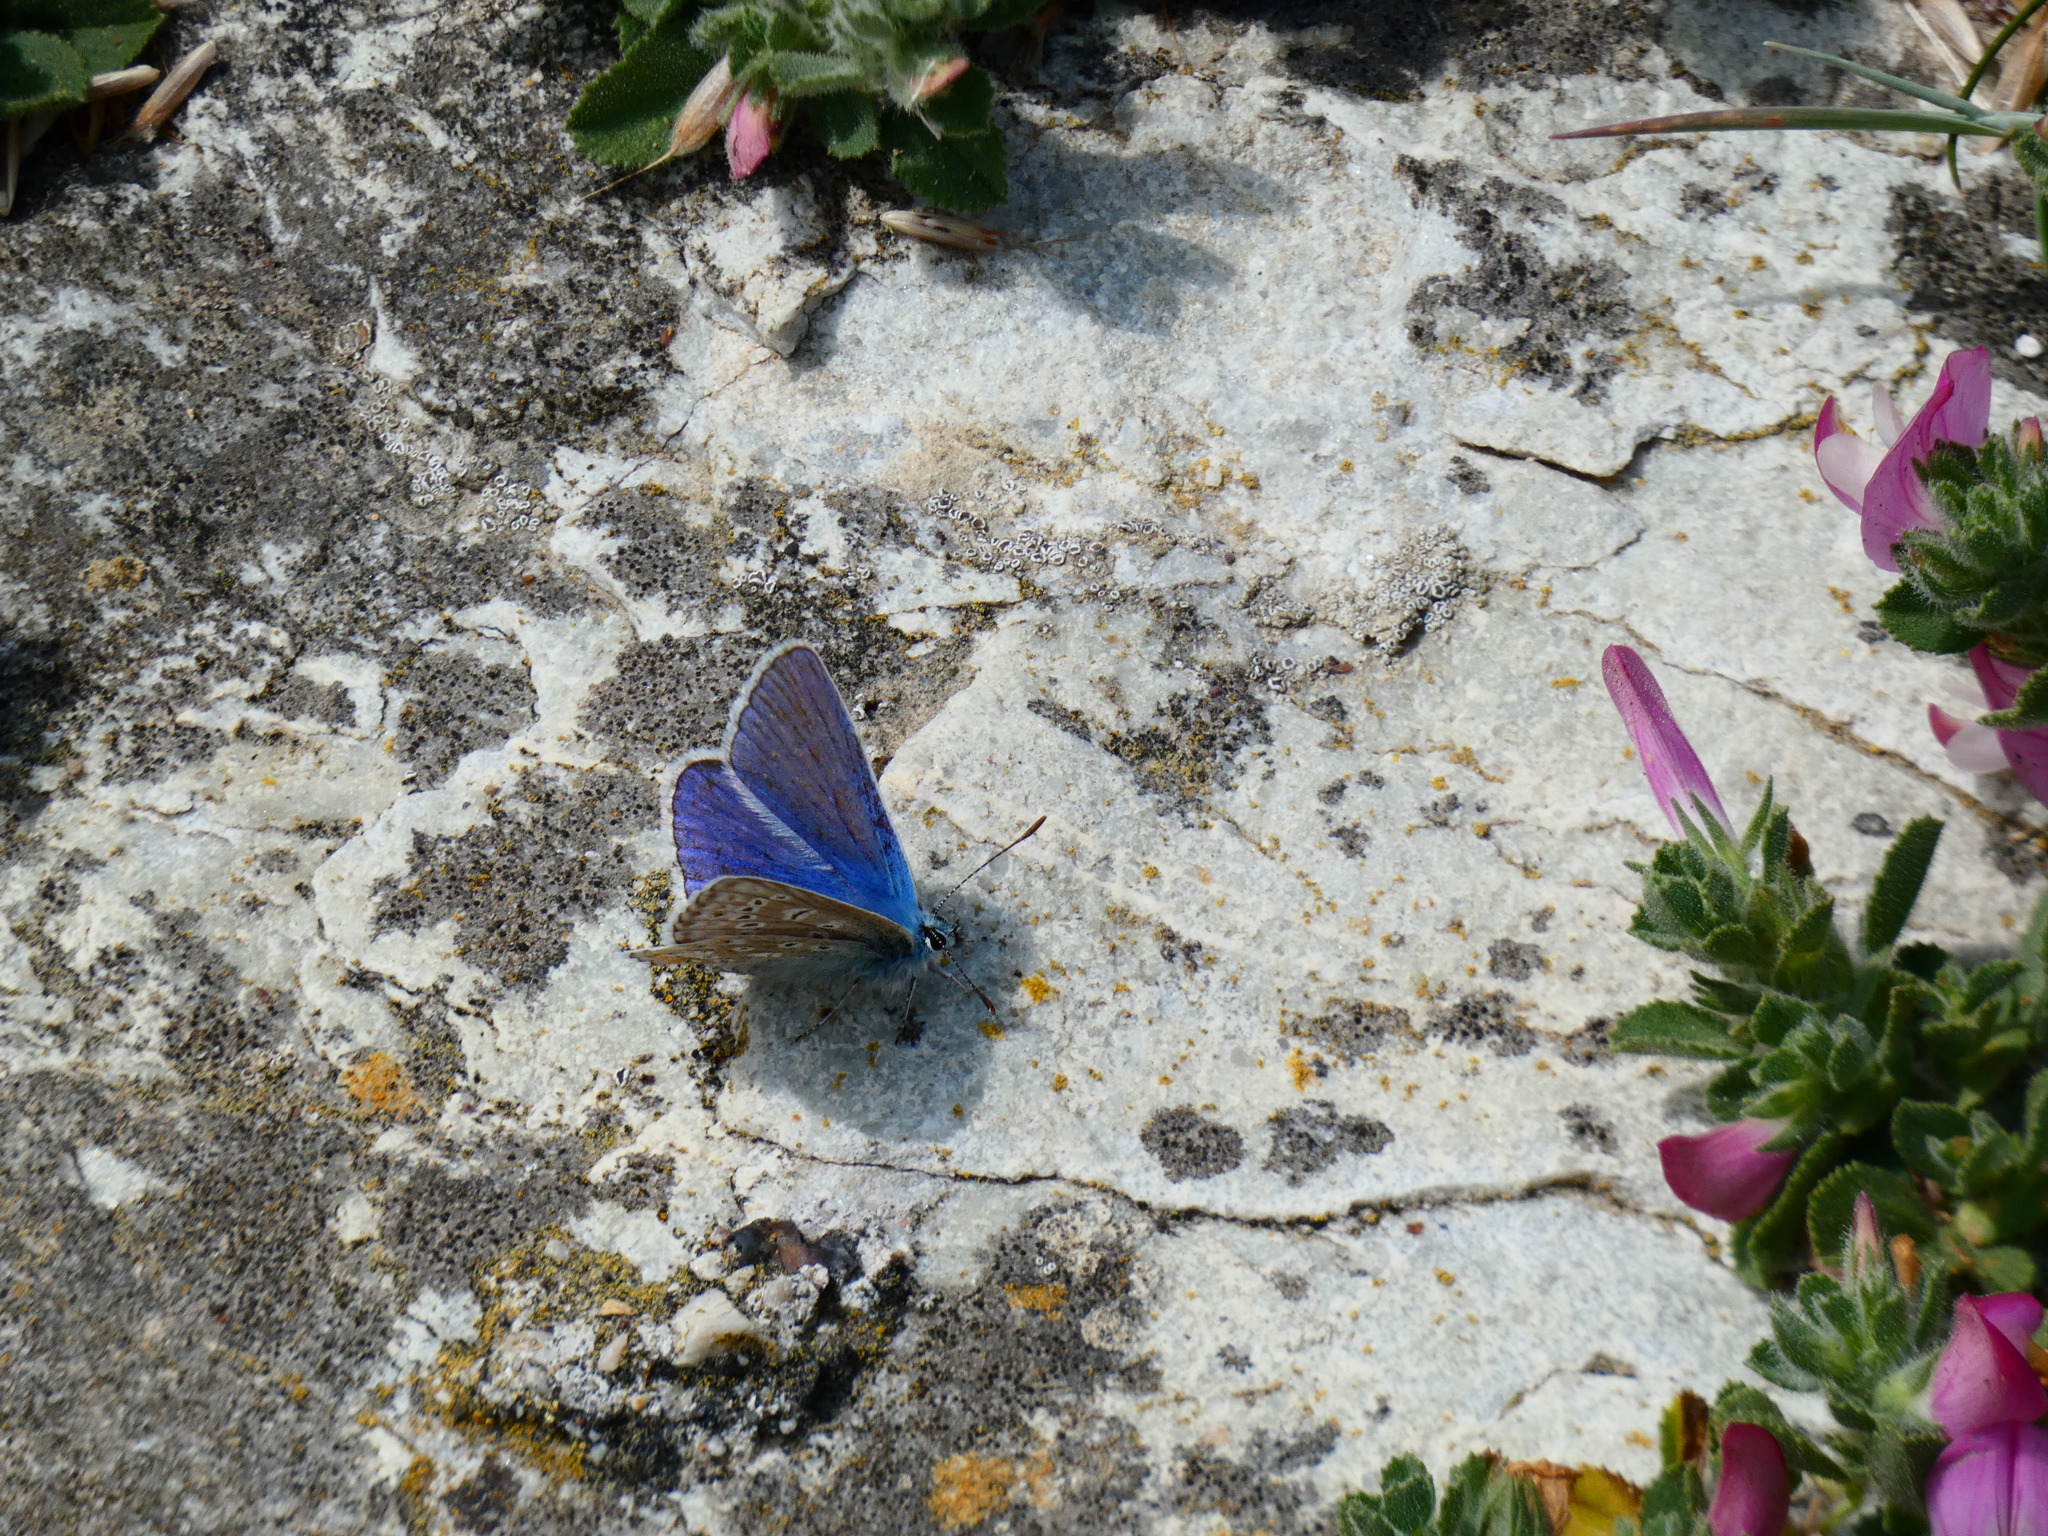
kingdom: Animalia
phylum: Arthropoda
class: Insecta
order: Lepidoptera
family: Lycaenidae
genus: Polyommatus
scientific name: Polyommatus icarus
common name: Common blue
